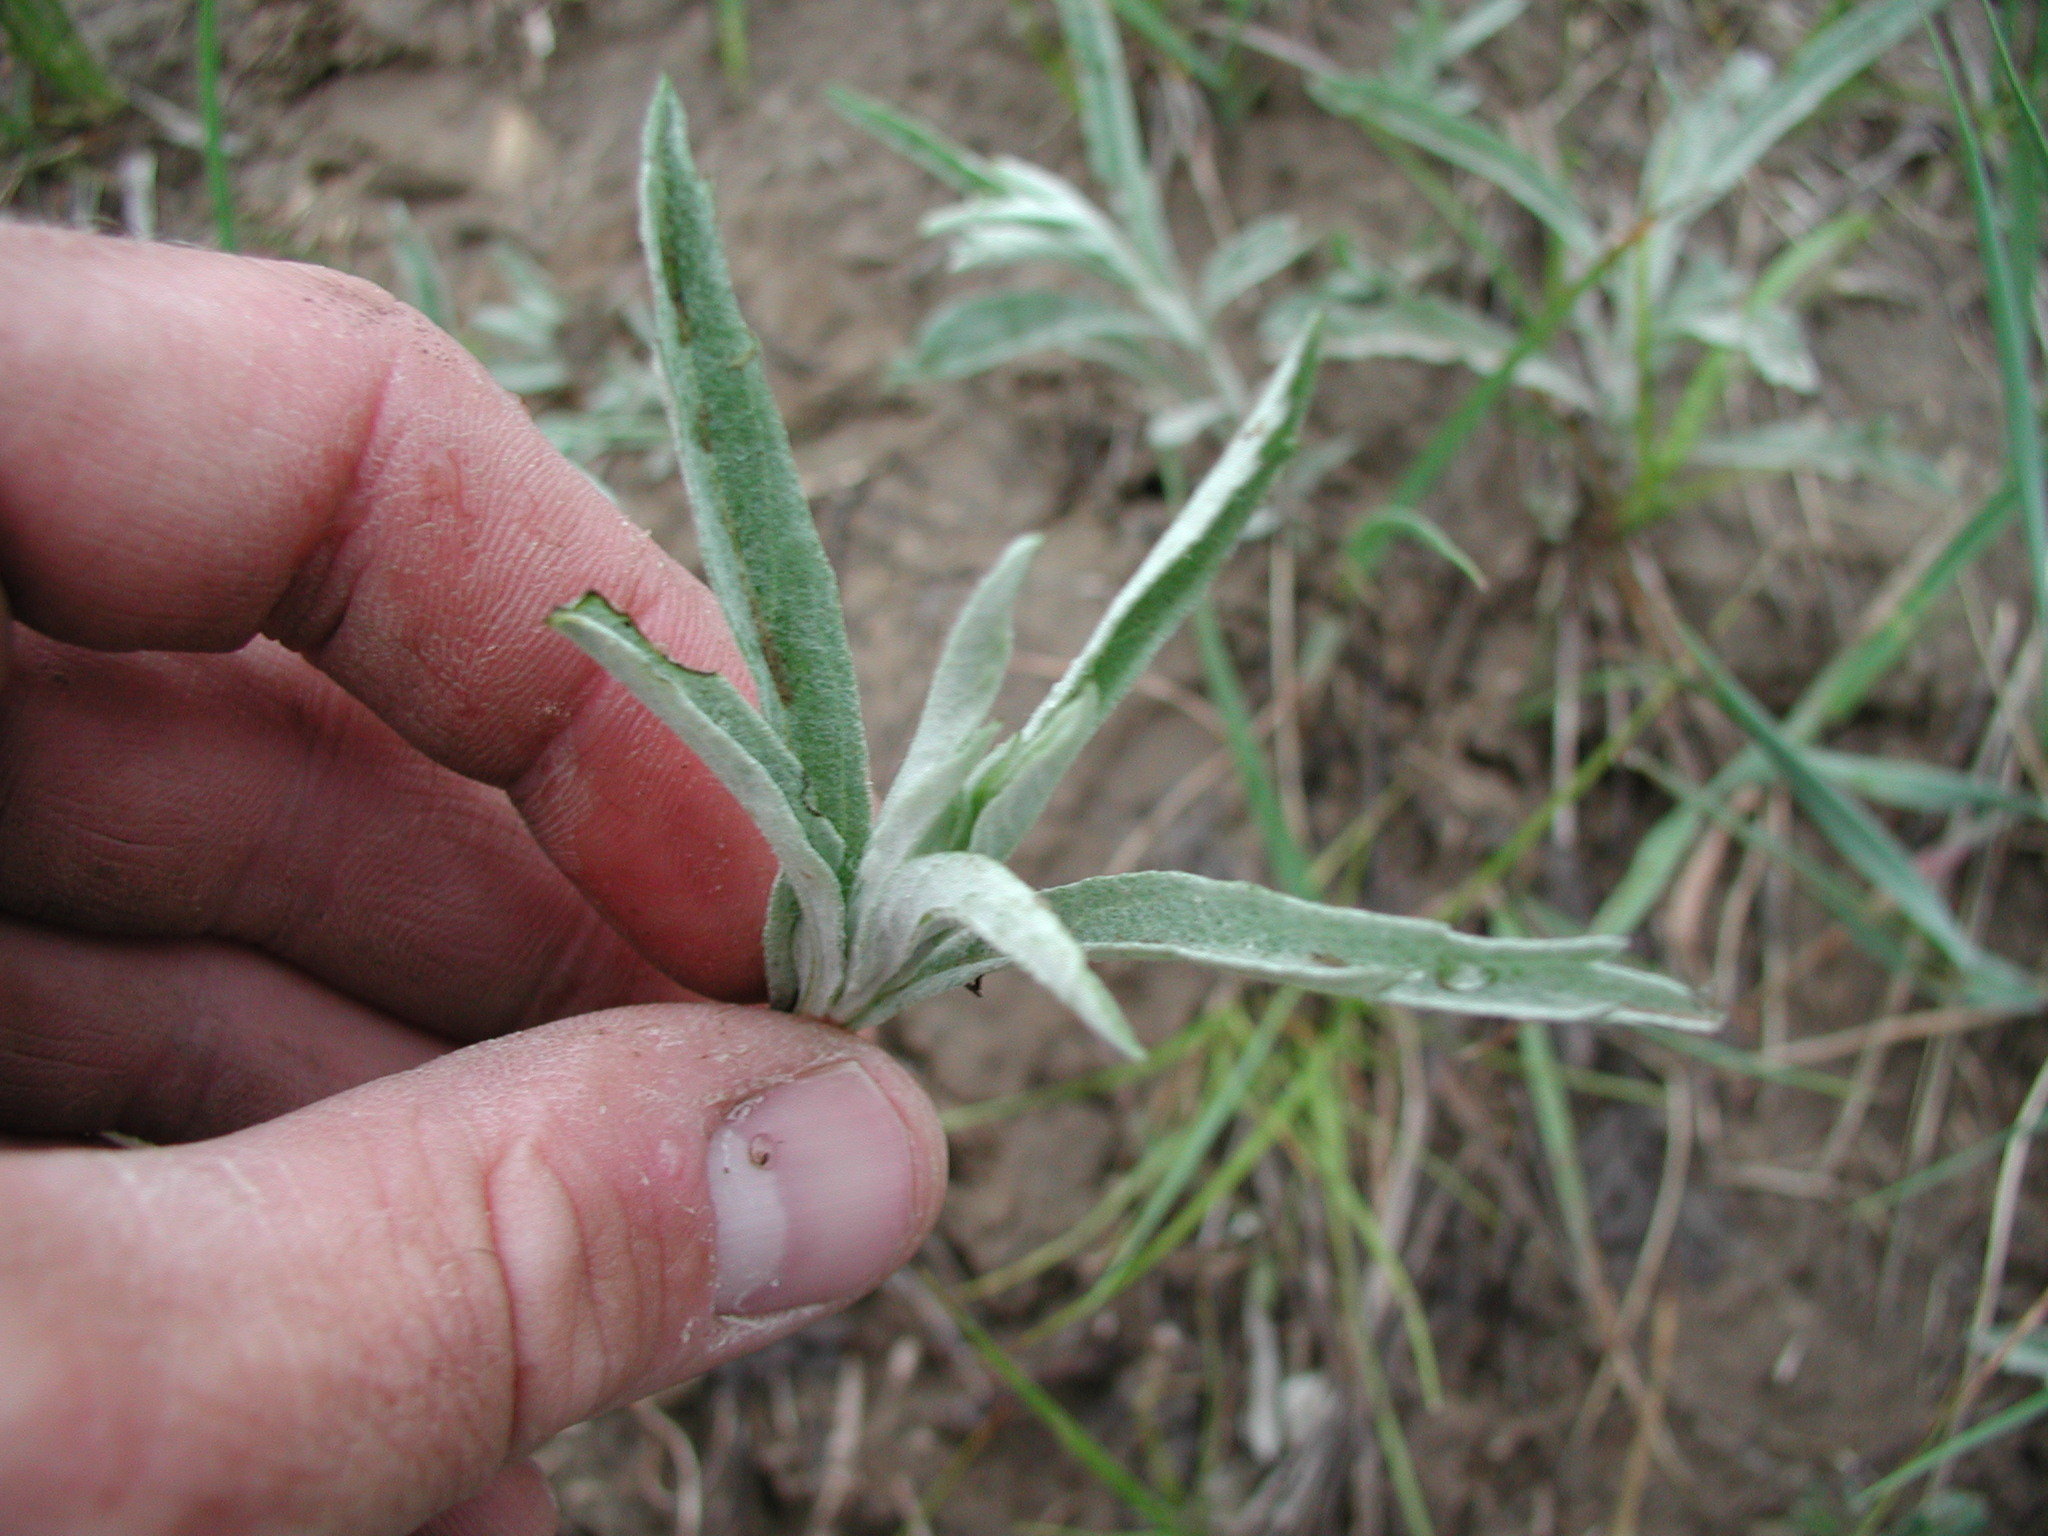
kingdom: Plantae
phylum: Tracheophyta
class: Magnoliopsida
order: Asterales
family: Asteraceae
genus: Artemisia
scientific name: Artemisia ludoviciana
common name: Western mugwort
